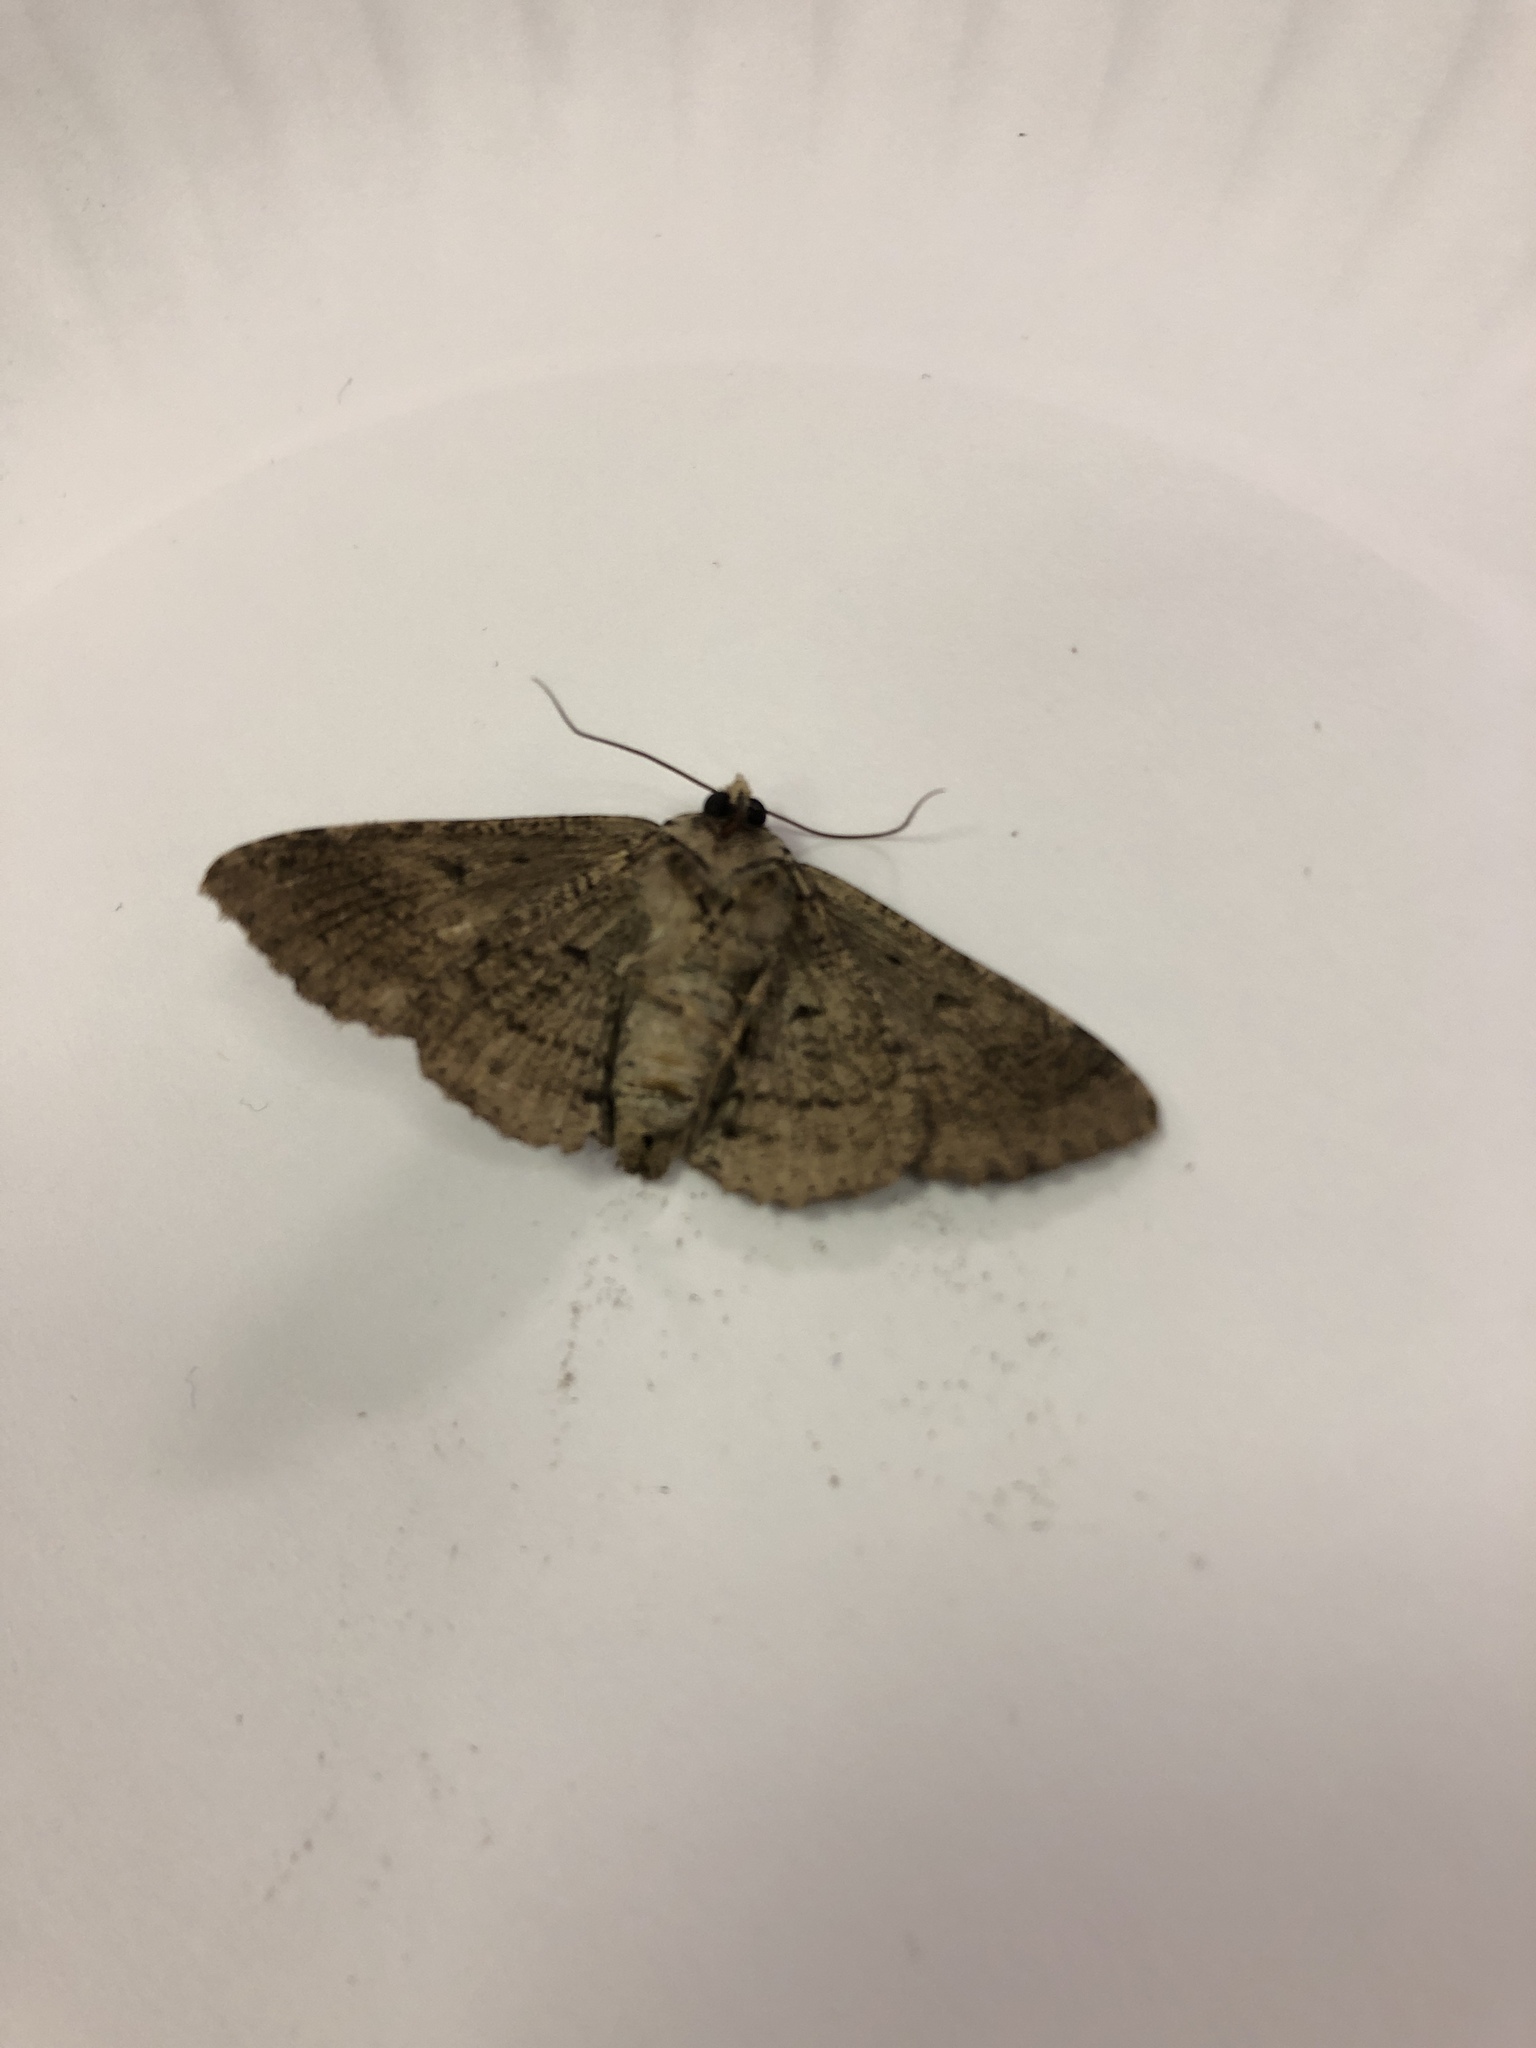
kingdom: Animalia
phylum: Arthropoda
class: Insecta
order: Lepidoptera
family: Erebidae
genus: Zale
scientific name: Zale lunata
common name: Lunate zale moth
